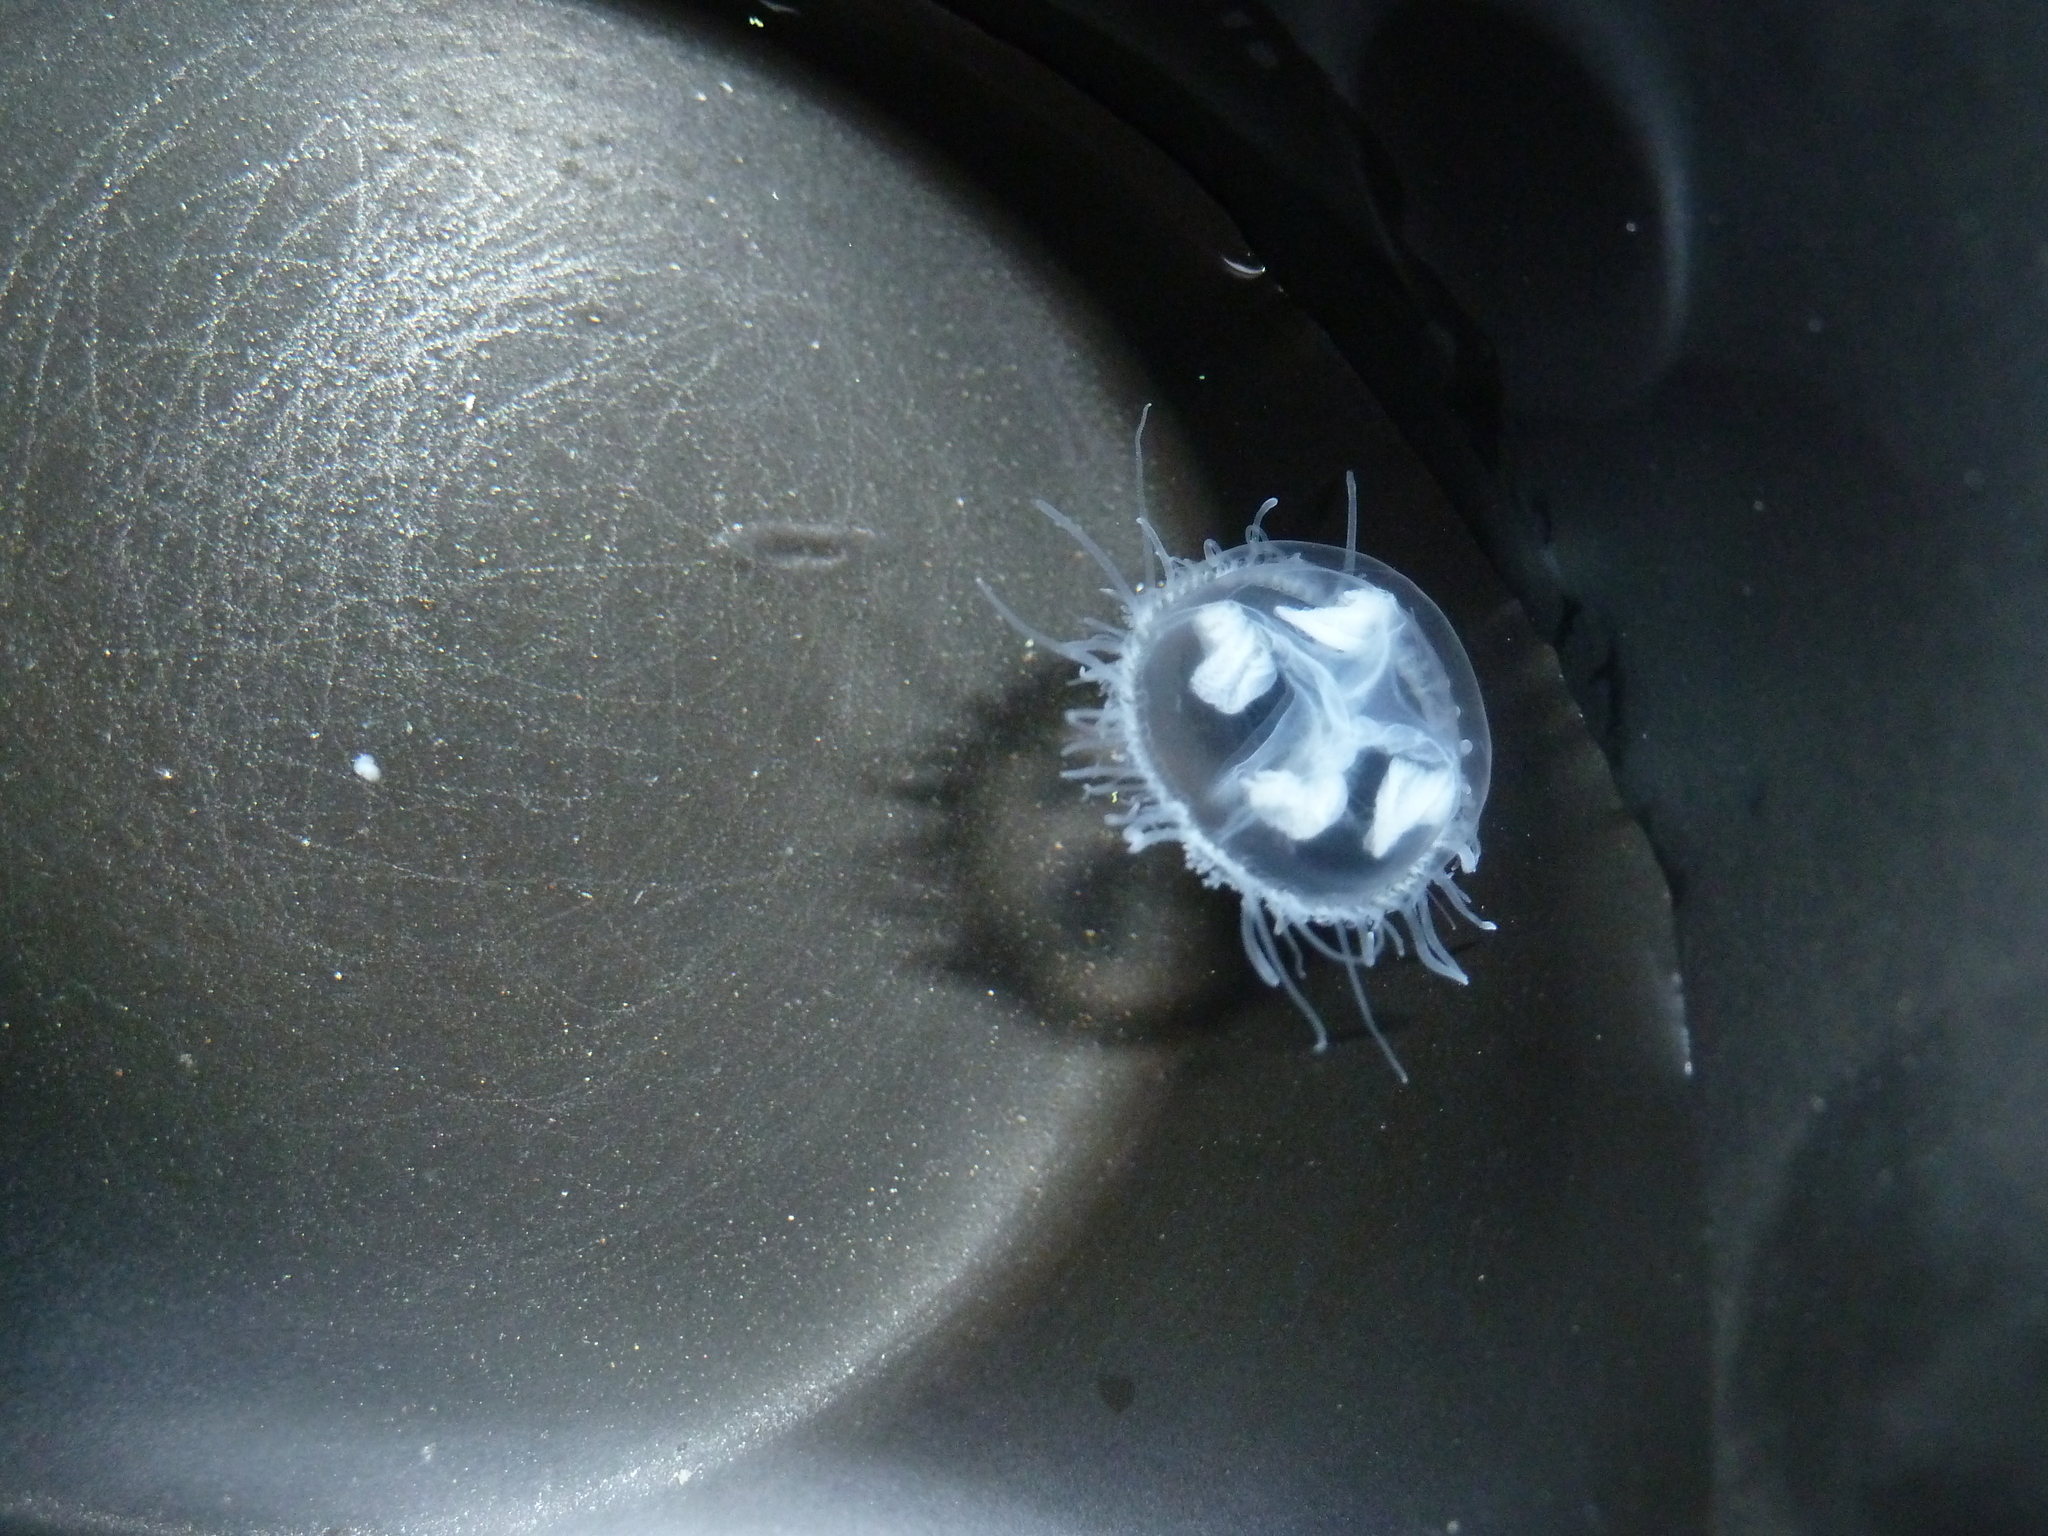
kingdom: Animalia
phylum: Cnidaria
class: Hydrozoa
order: Limnomedusae
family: Olindiidae
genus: Craspedacusta
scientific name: Craspedacusta sowerbii
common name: Freshwater jellyfish
